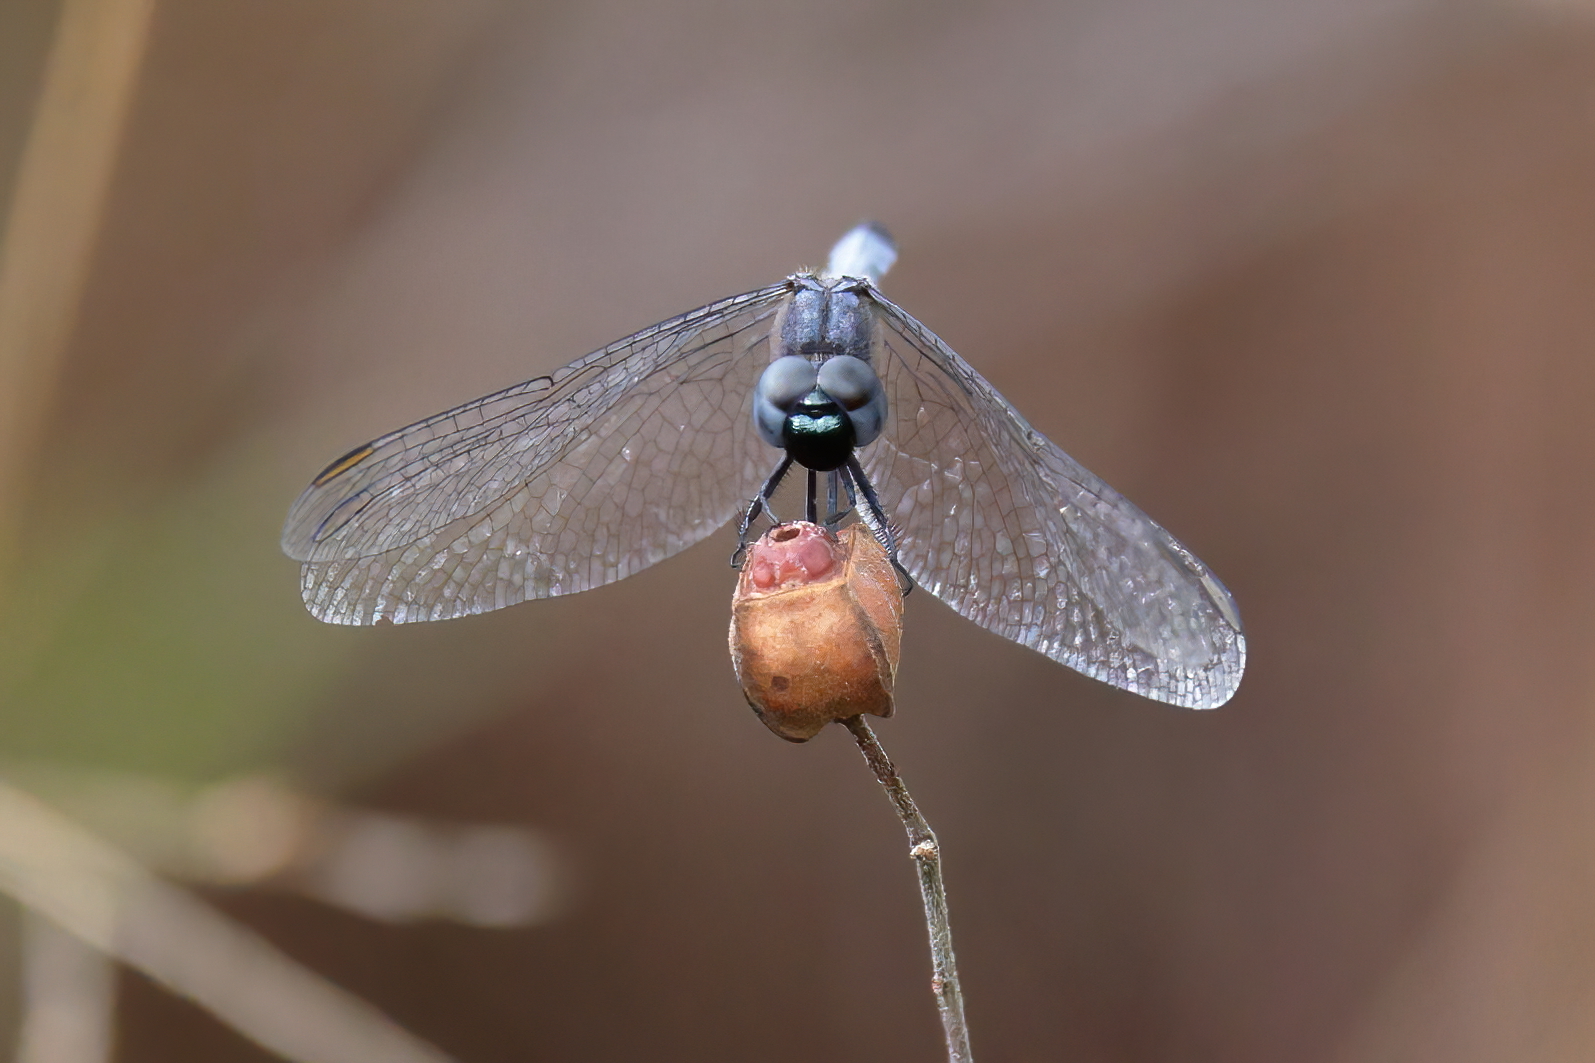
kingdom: Animalia
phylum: Arthropoda
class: Insecta
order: Odonata
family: Libellulidae
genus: Erythrodiplax
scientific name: Erythrodiplax minuscula
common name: Little blue dragonlet
